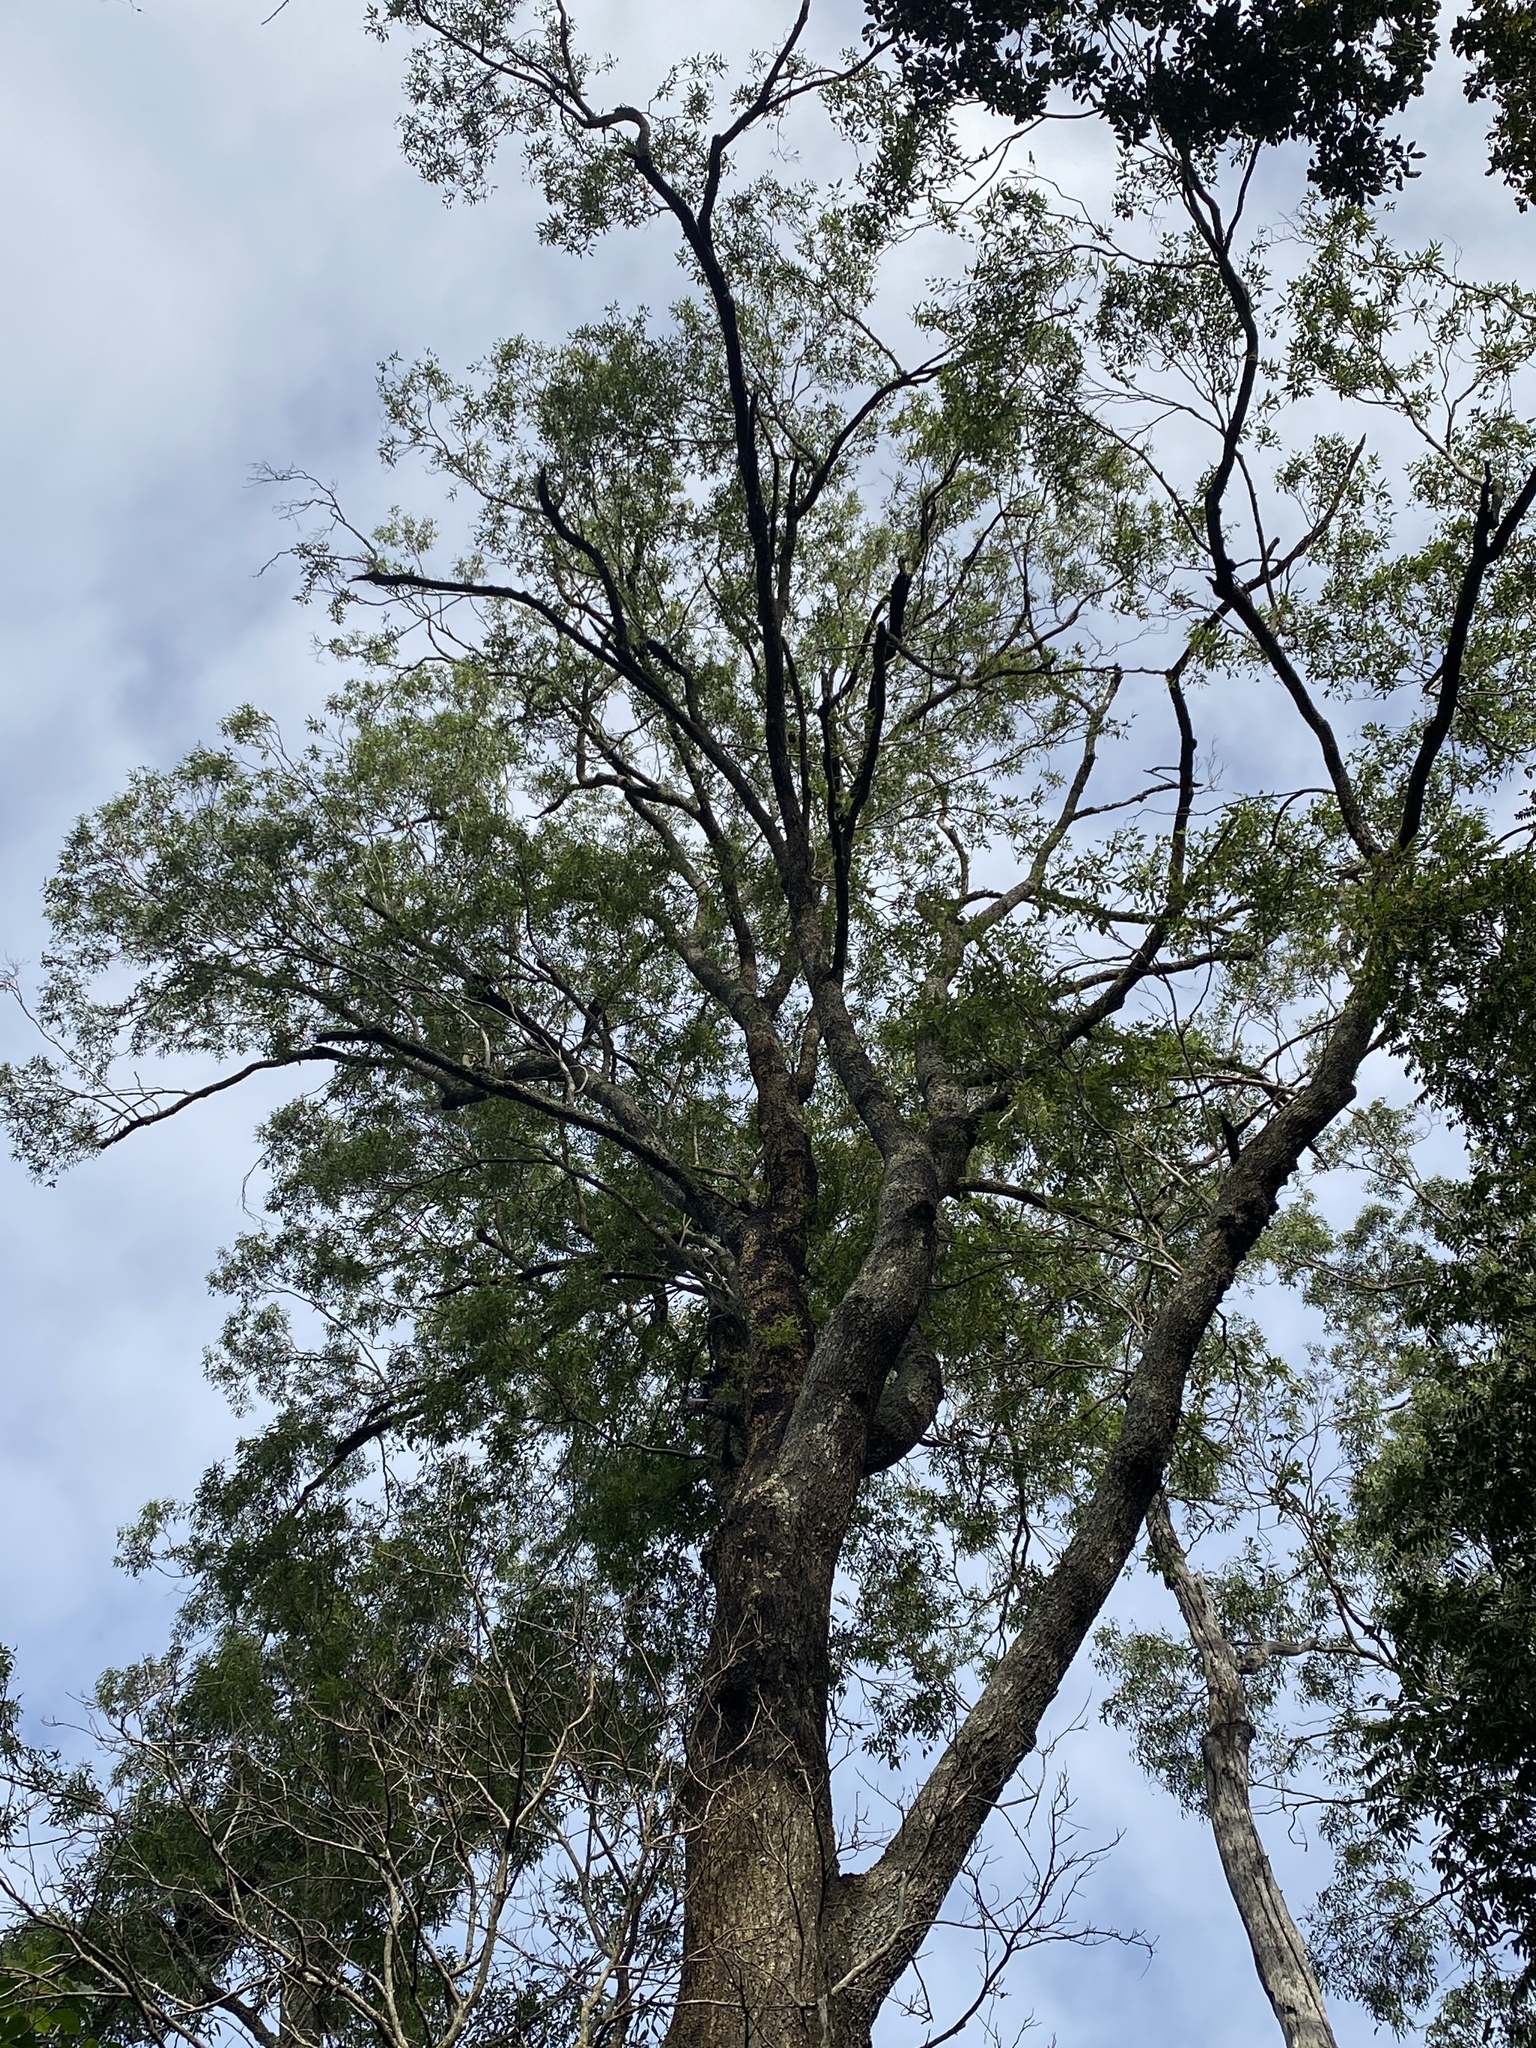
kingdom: Plantae
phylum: Tracheophyta
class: Magnoliopsida
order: Myrtales
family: Myrtaceae
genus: Eucalyptus
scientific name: Eucalyptus siderophloia
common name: Broad-leafed-ironbark
